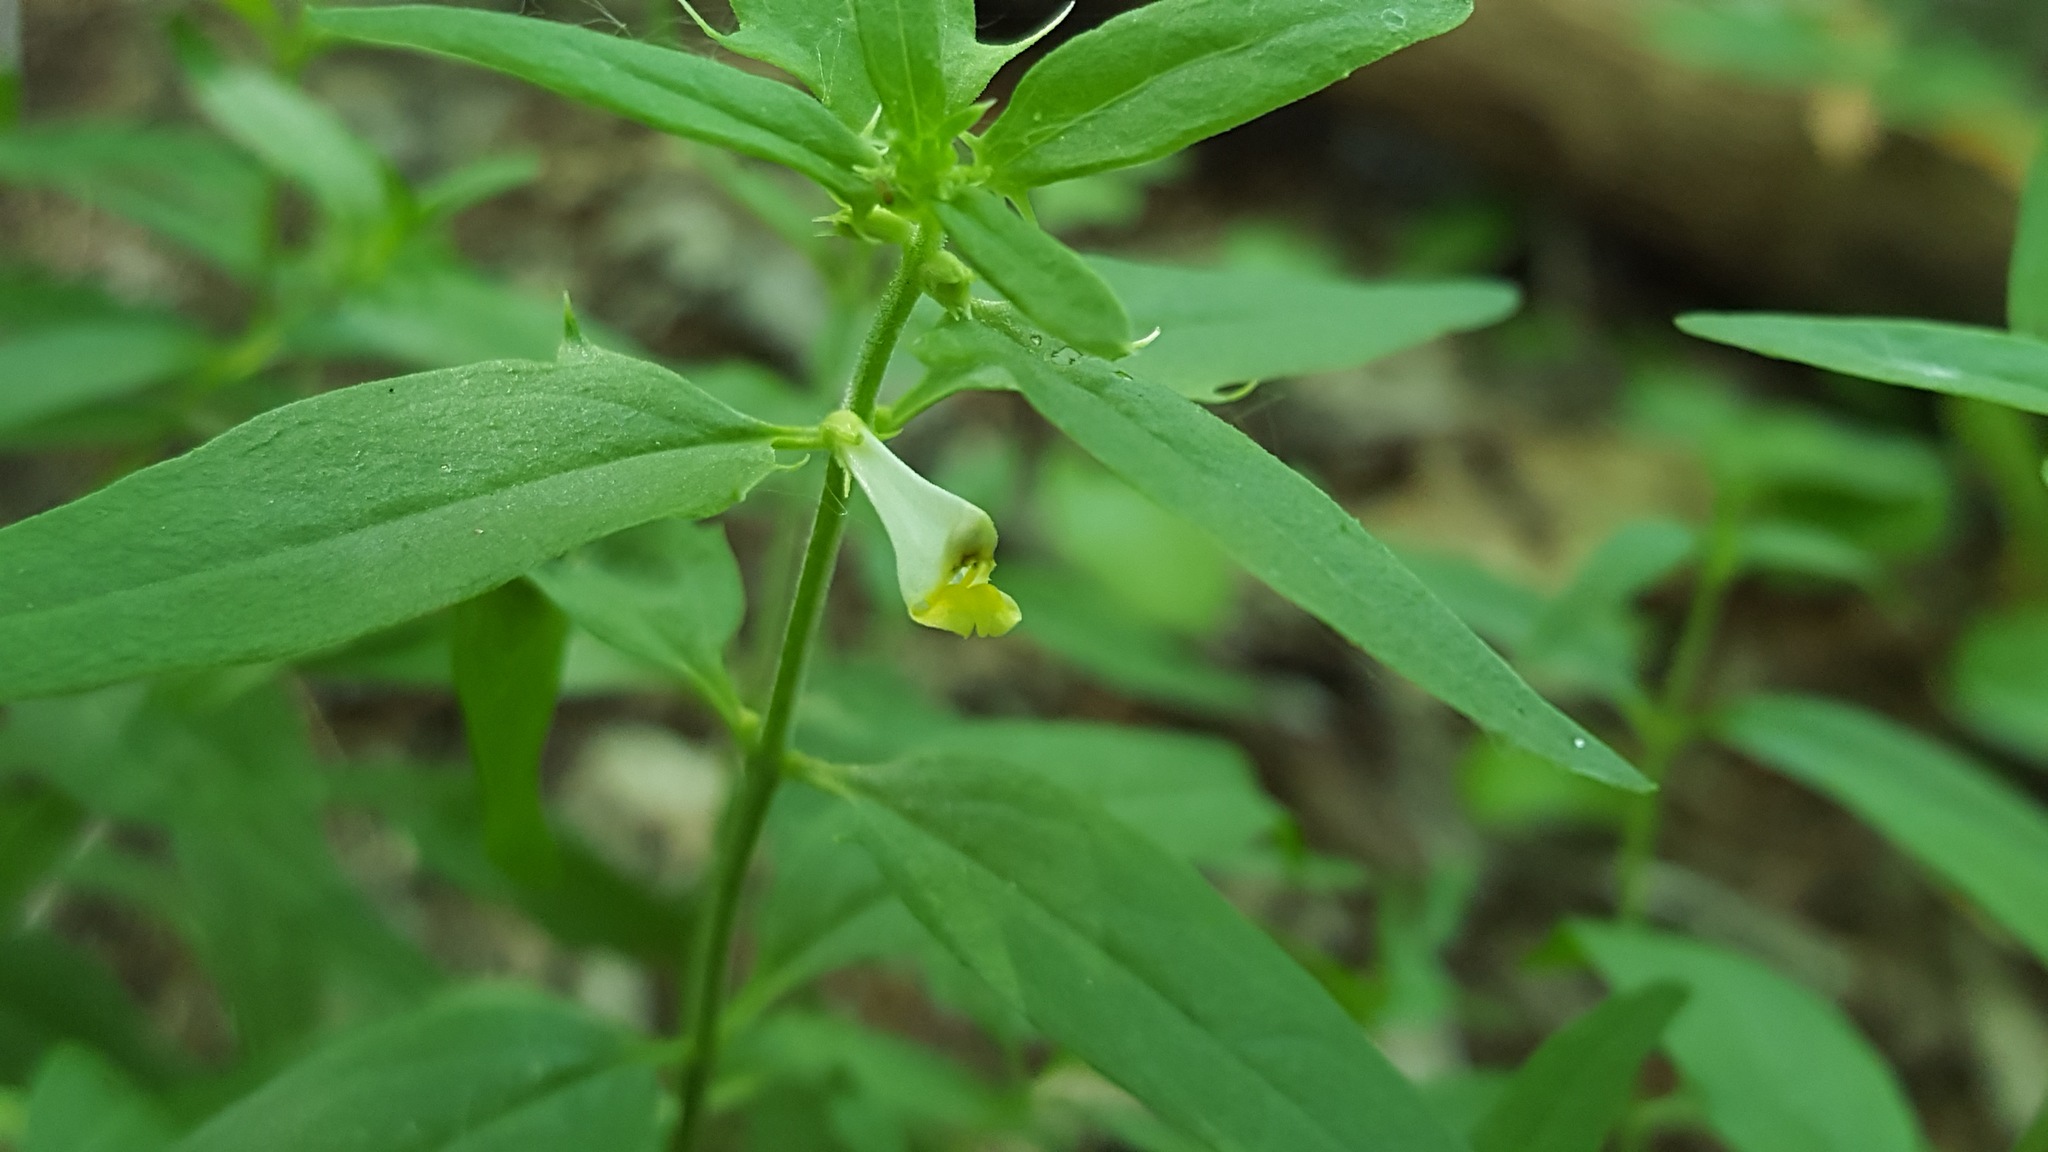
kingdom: Plantae
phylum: Tracheophyta
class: Magnoliopsida
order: Lamiales
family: Orobanchaceae
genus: Melampyrum
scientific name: Melampyrum lineare
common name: American cow-wheat
